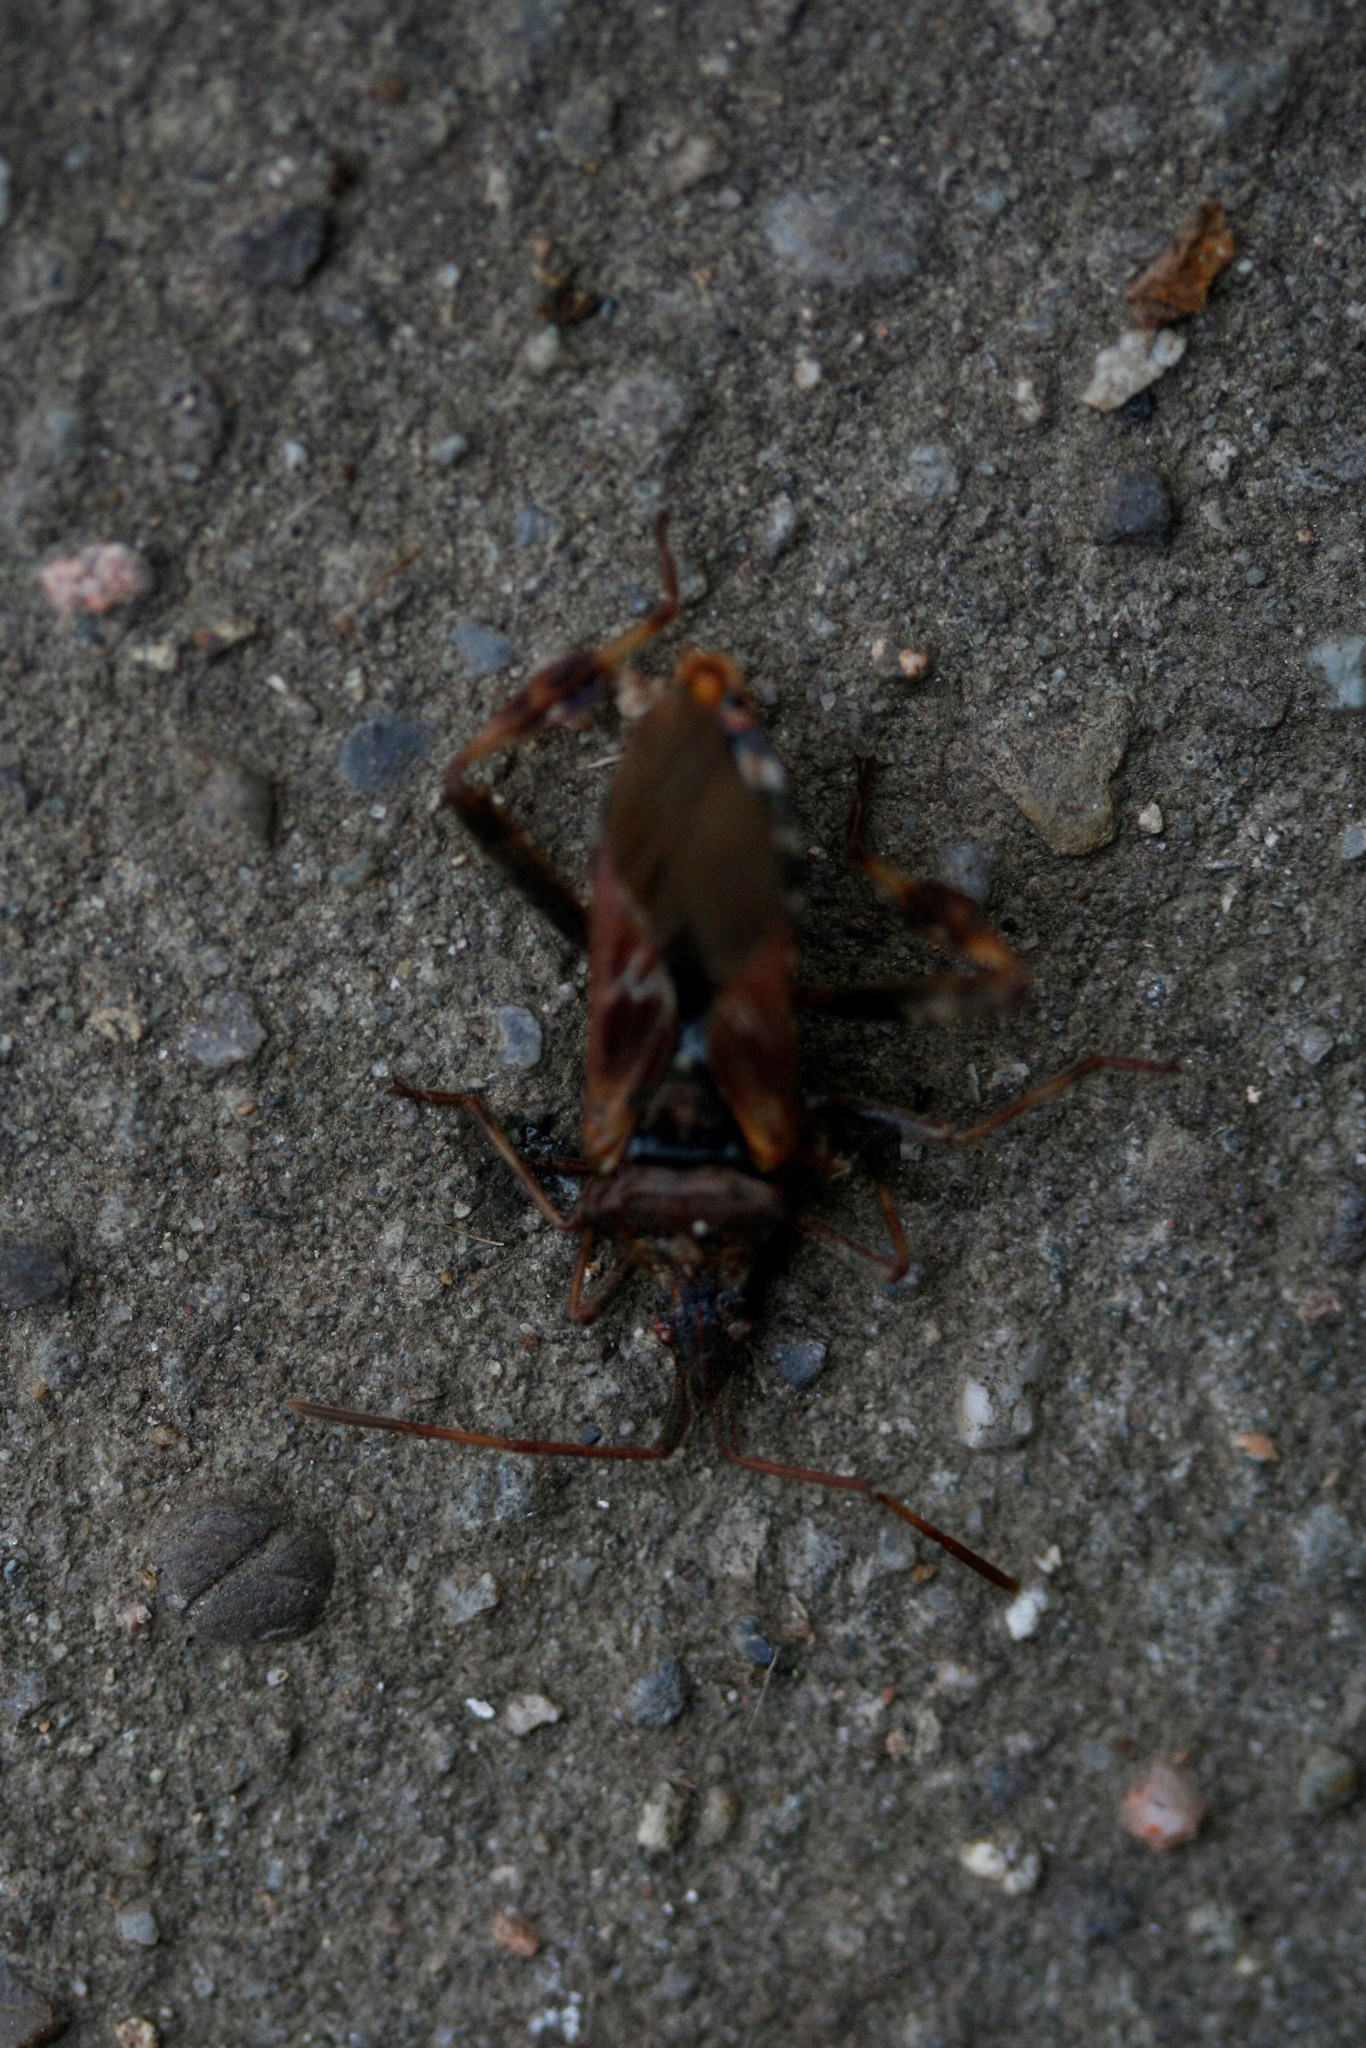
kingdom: Animalia
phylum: Arthropoda
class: Insecta
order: Hemiptera
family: Coreidae
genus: Leptoglossus
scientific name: Leptoglossus occidentalis
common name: Western conifer-seed bug
